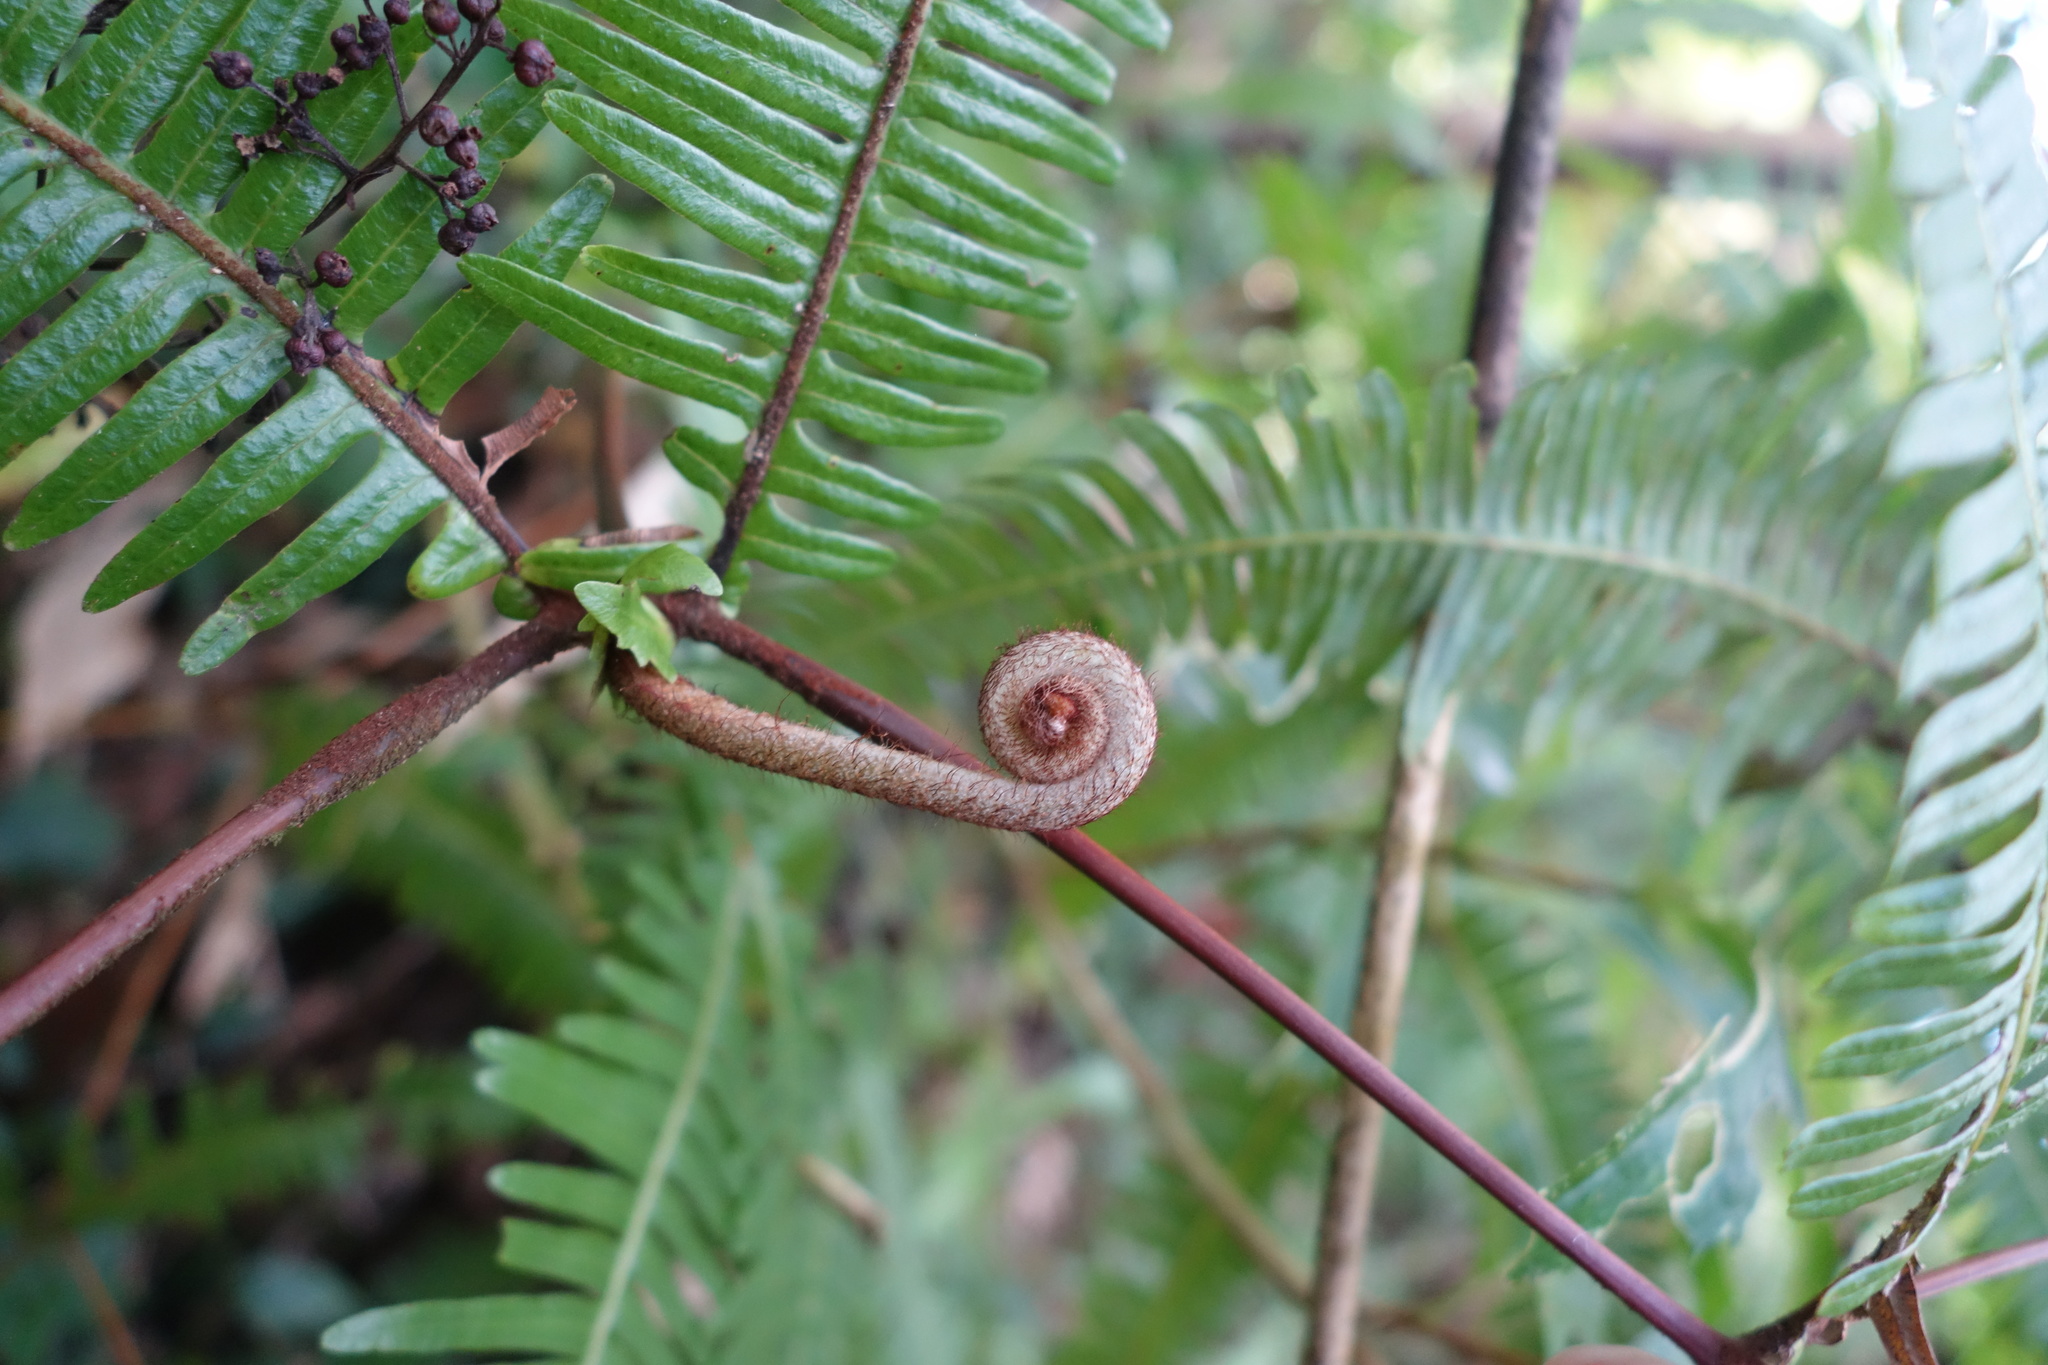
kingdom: Plantae
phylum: Tracheophyta
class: Polypodiopsida
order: Gleicheniales
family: Gleicheniaceae
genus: Dicranopteris
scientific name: Dicranopteris linearis
